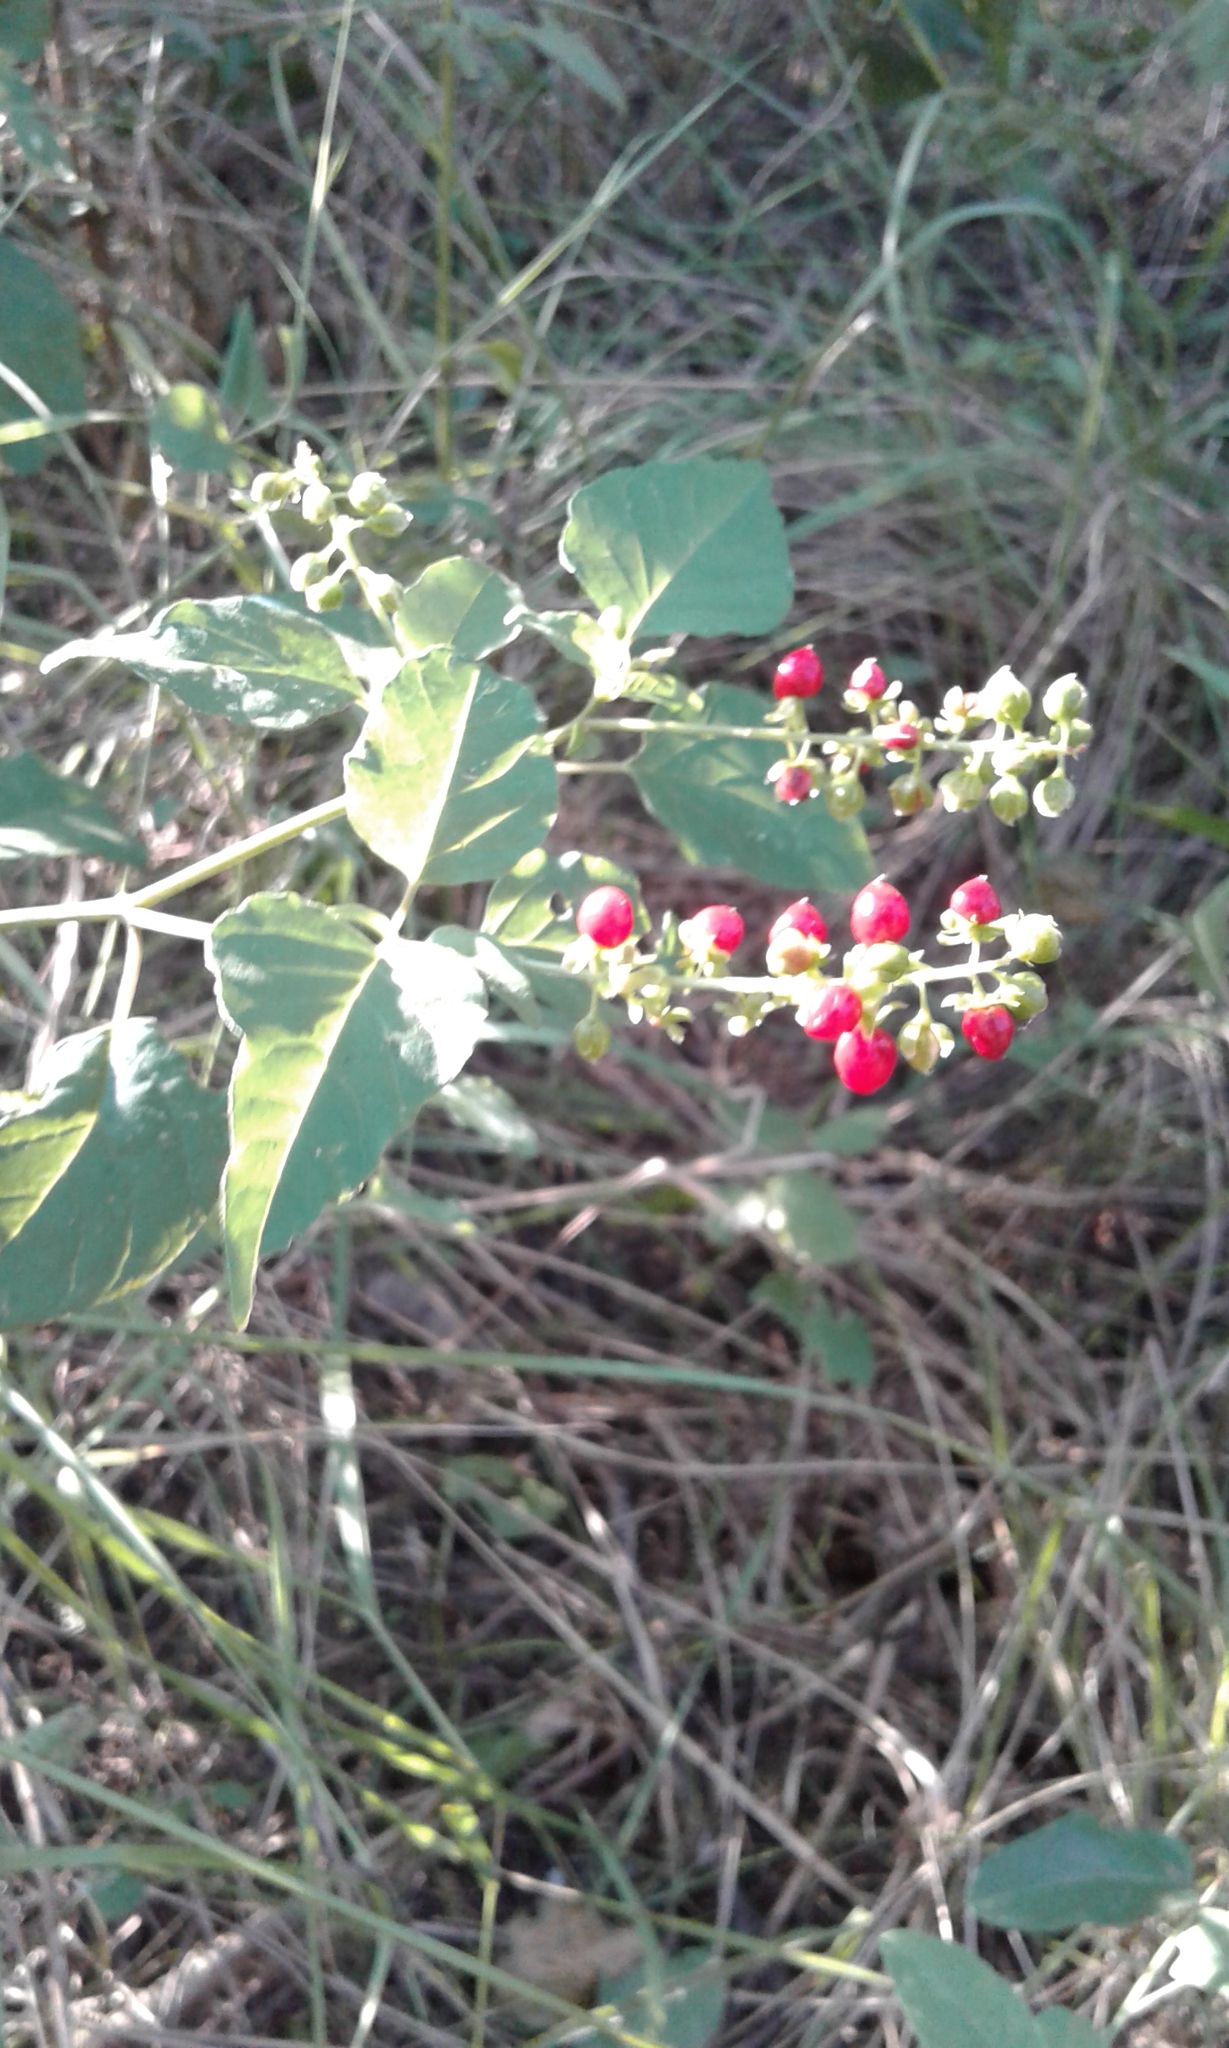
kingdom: Plantae
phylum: Tracheophyta
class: Magnoliopsida
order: Caryophyllales
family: Phytolaccaceae
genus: Rivina
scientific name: Rivina humilis
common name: Rougeplant
